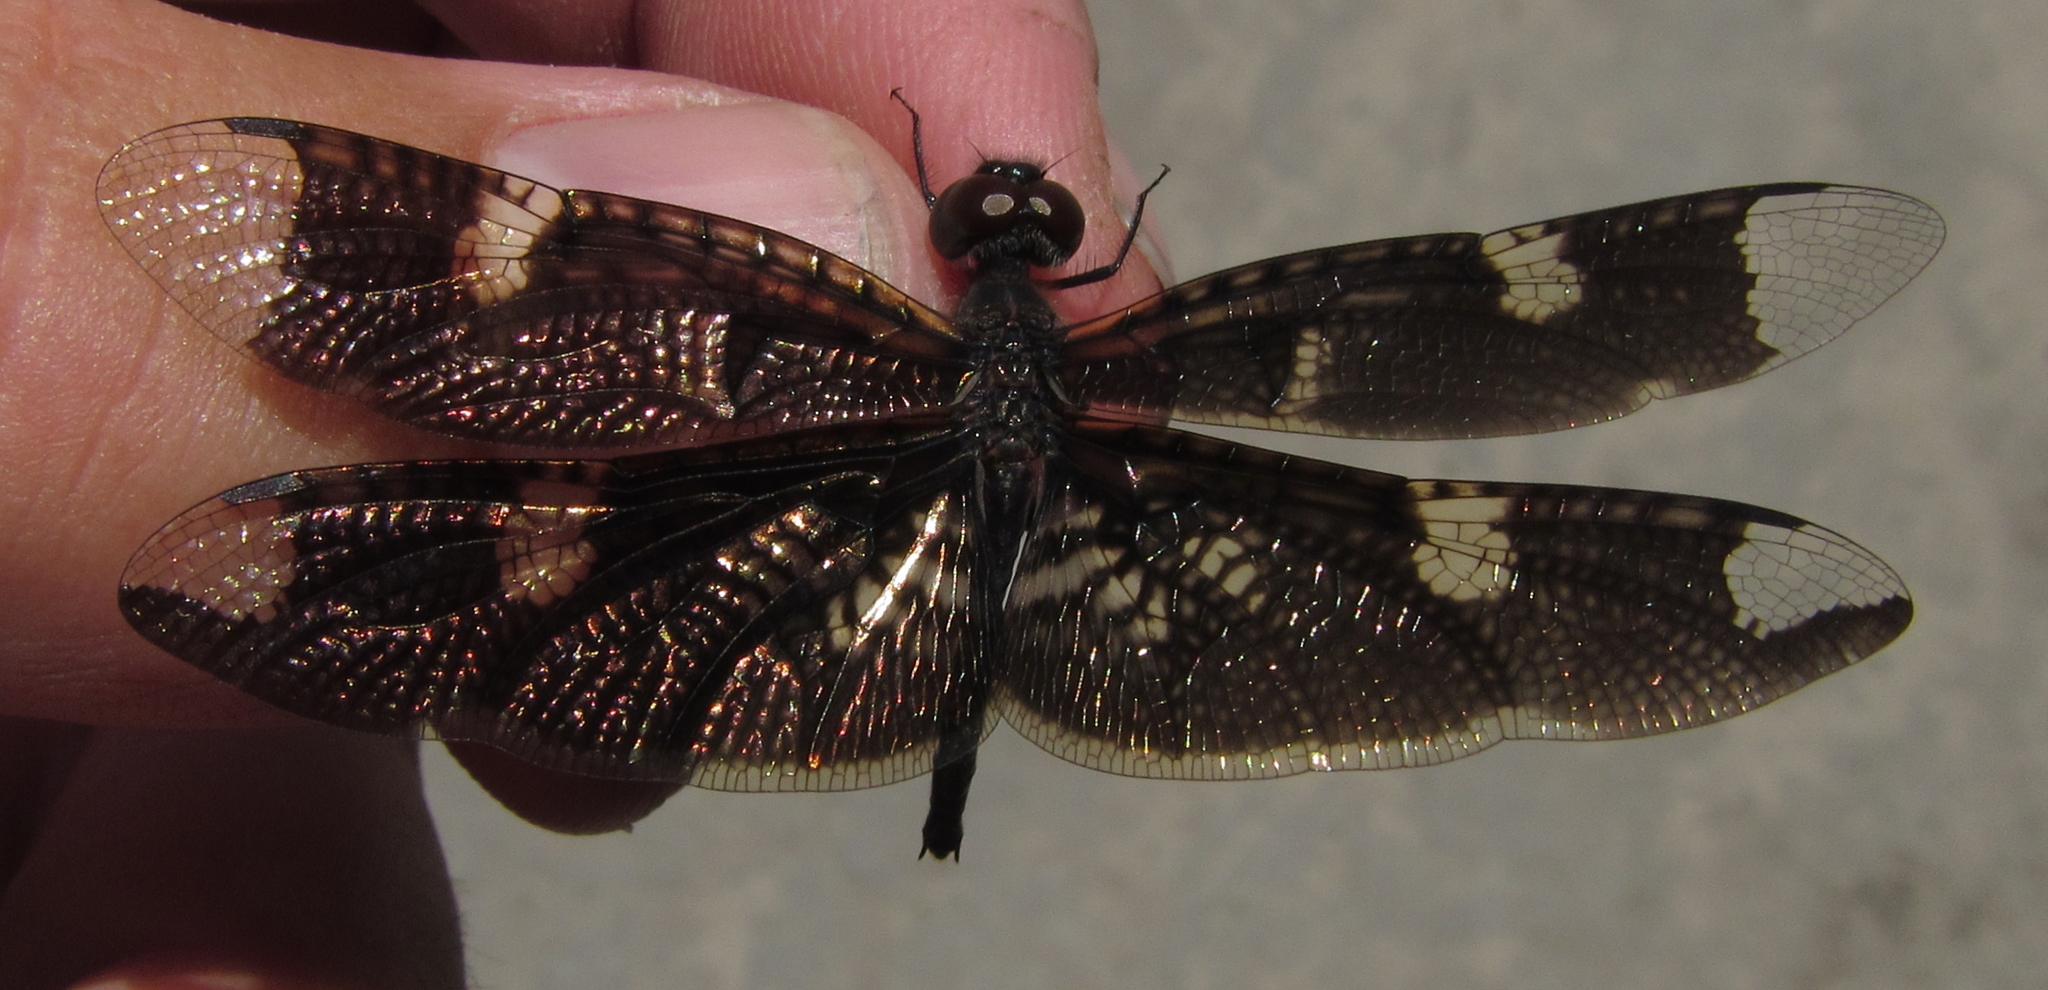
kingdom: Animalia
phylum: Arthropoda
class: Insecta
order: Odonata
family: Libellulidae
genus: Rhyothemis
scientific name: Rhyothemis fenestrina
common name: Skylight flutterer
